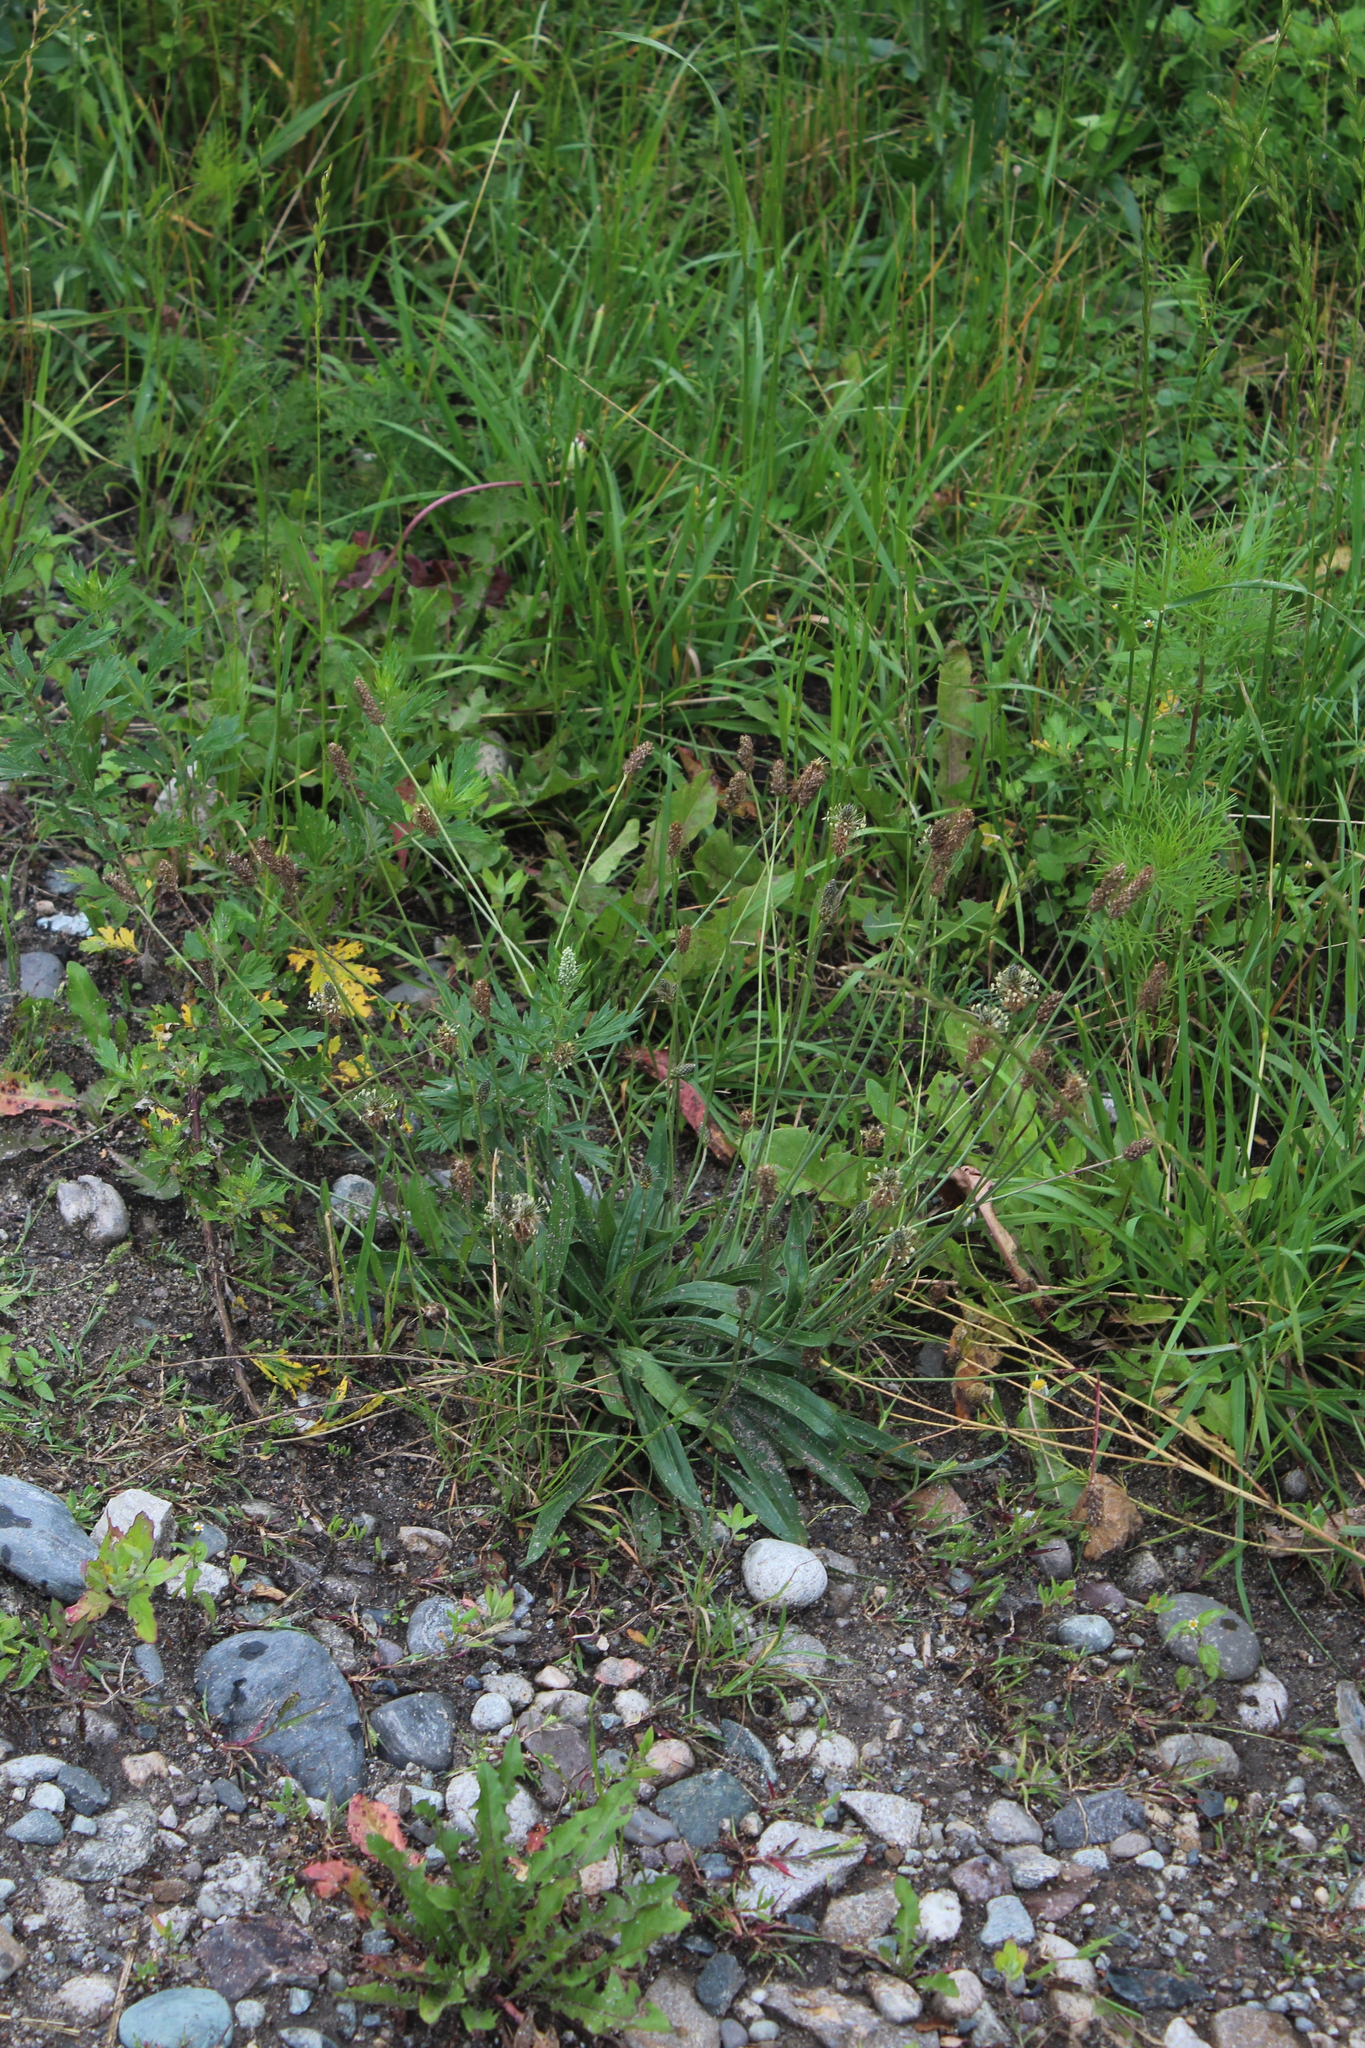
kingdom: Plantae
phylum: Tracheophyta
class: Magnoliopsida
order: Lamiales
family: Plantaginaceae
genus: Plantago
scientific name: Plantago lanceolata
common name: Ribwort plantain
